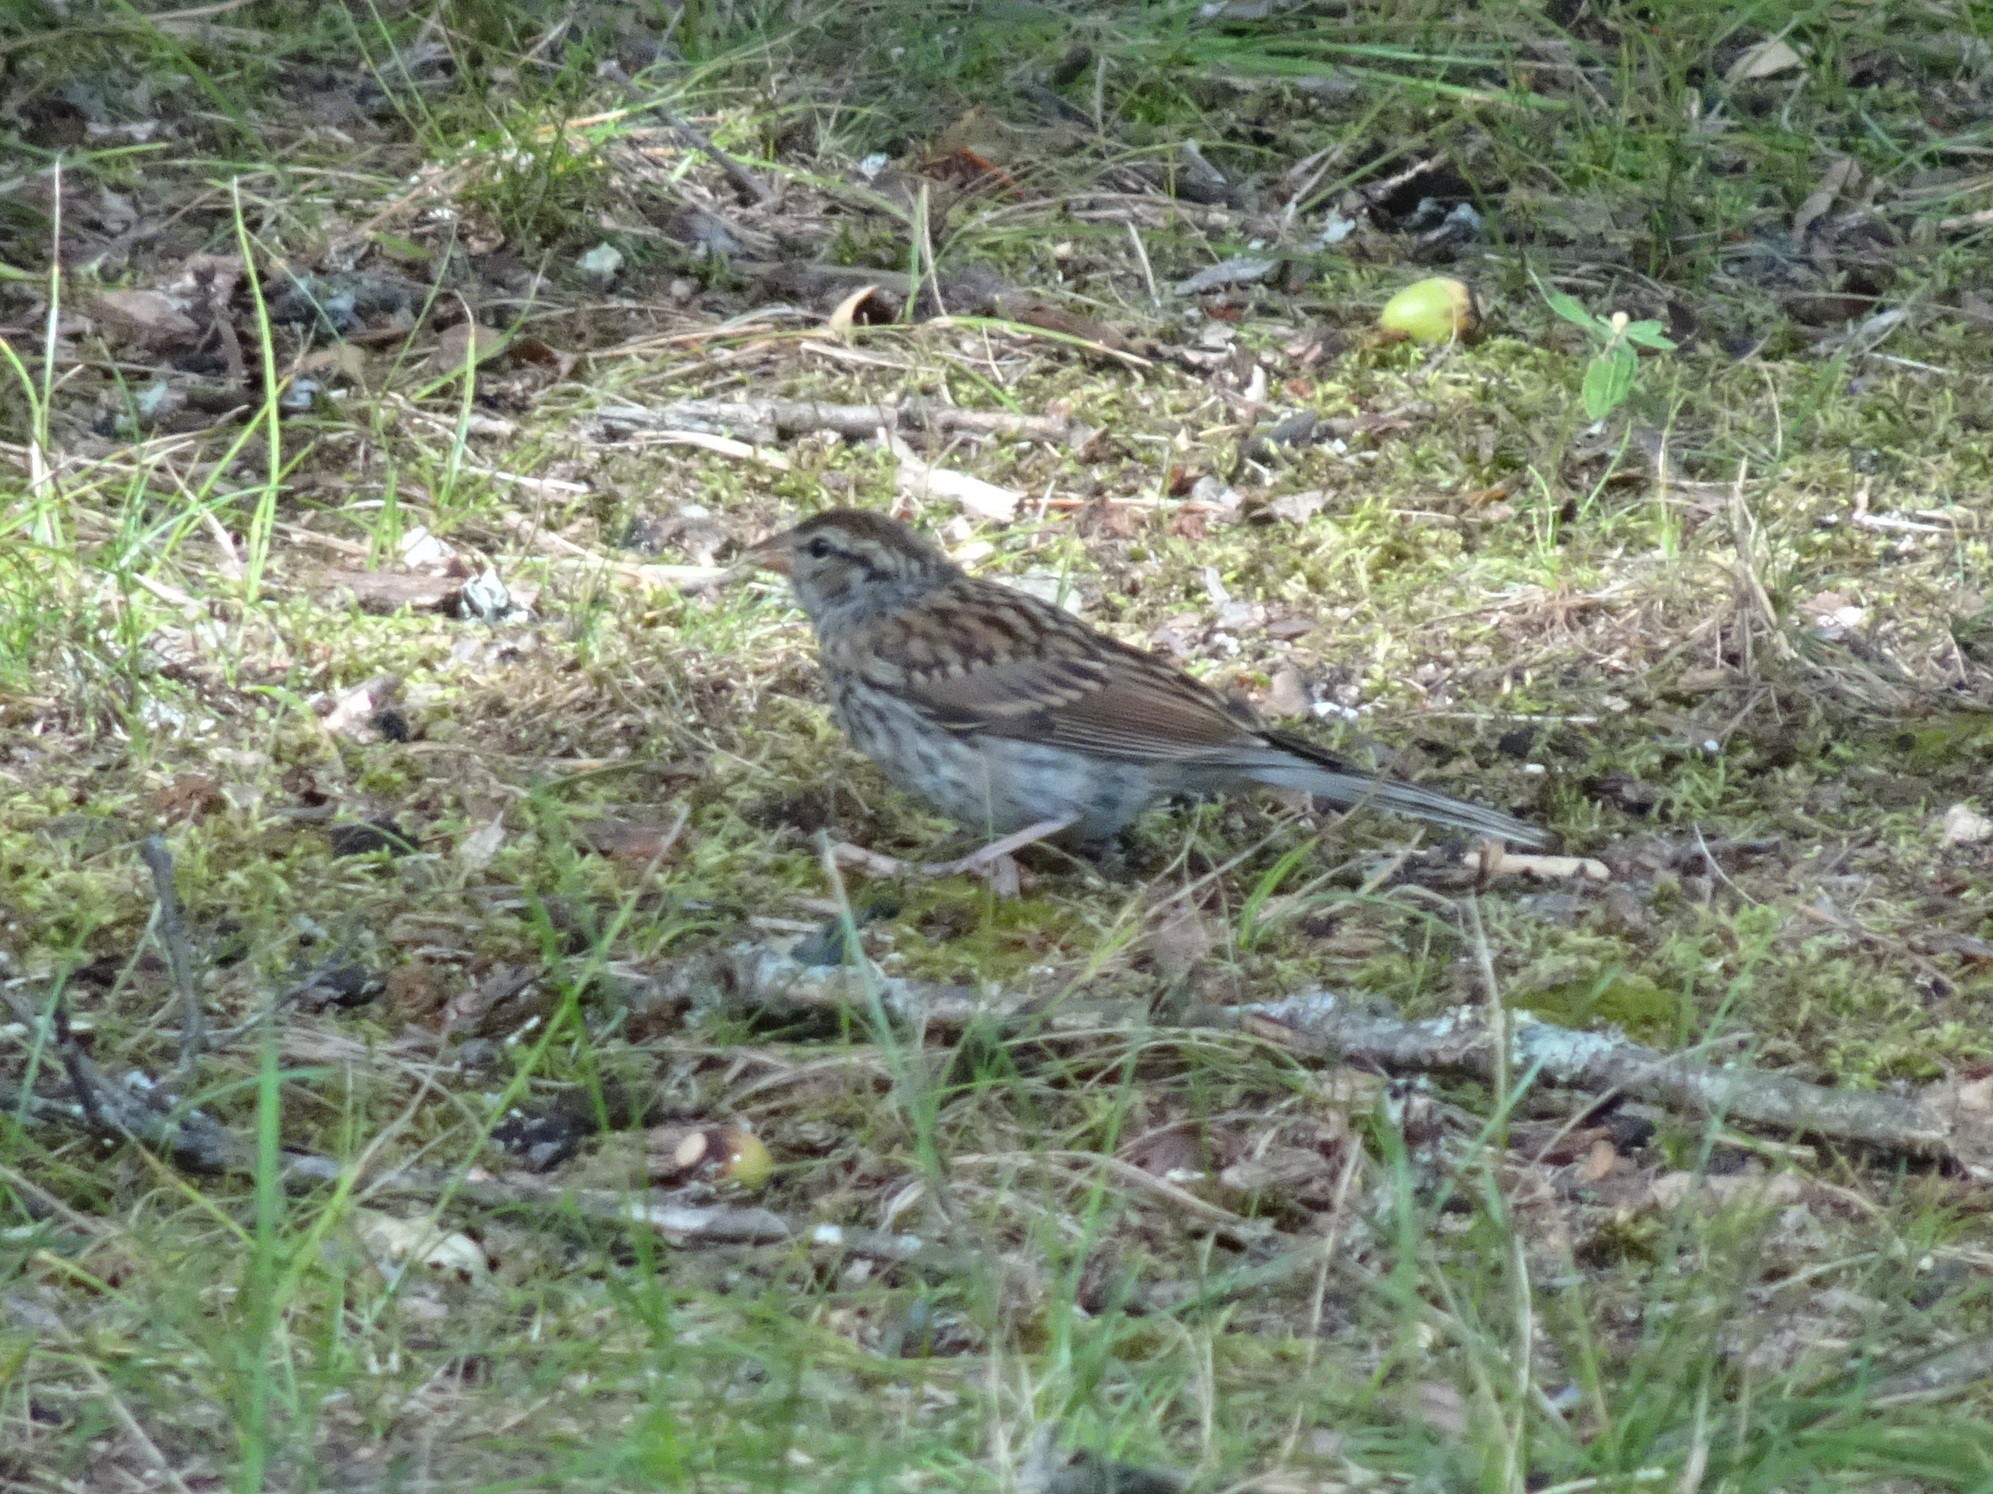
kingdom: Animalia
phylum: Chordata
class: Aves
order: Passeriformes
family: Passerellidae
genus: Spizella
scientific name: Spizella passerina
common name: Chipping sparrow
